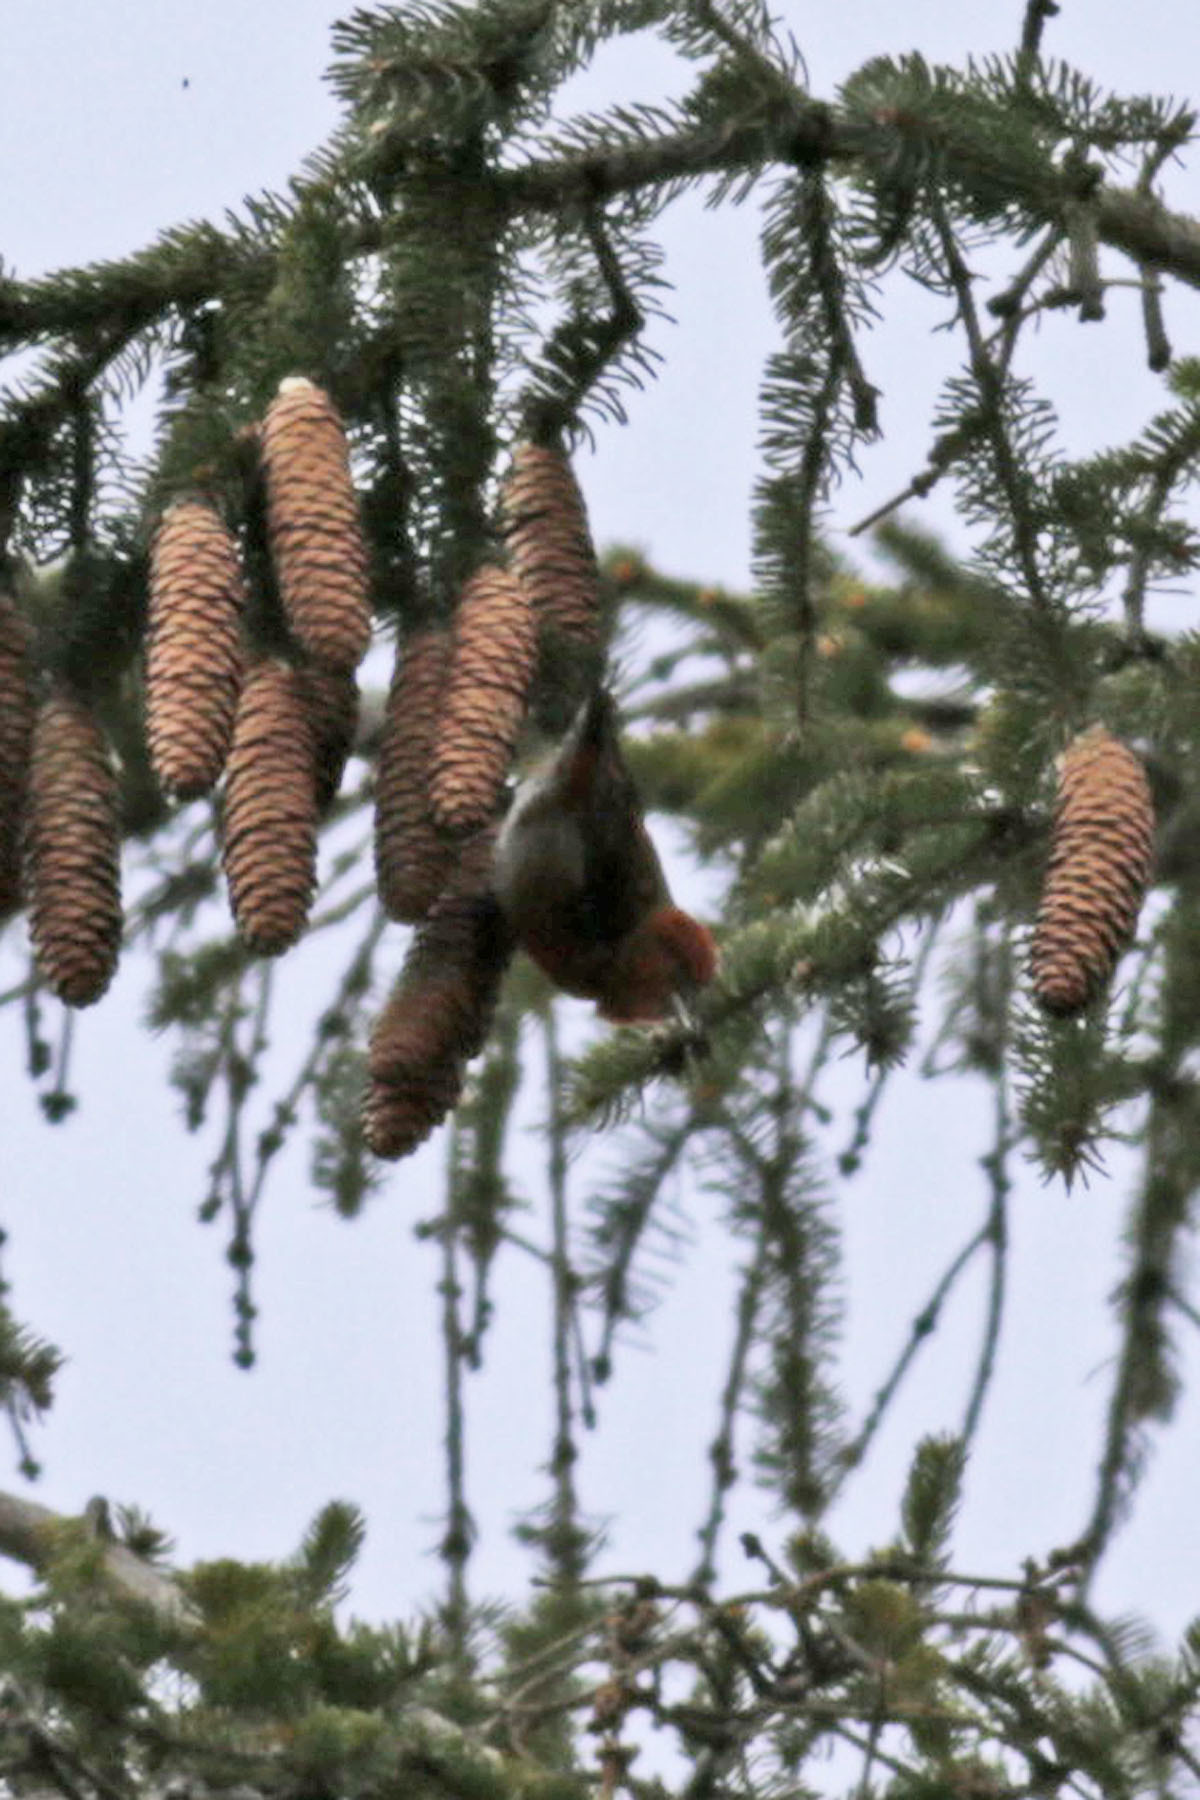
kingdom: Animalia
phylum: Chordata
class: Aves
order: Passeriformes
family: Fringillidae
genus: Loxia
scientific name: Loxia curvirostra
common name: Red crossbill
